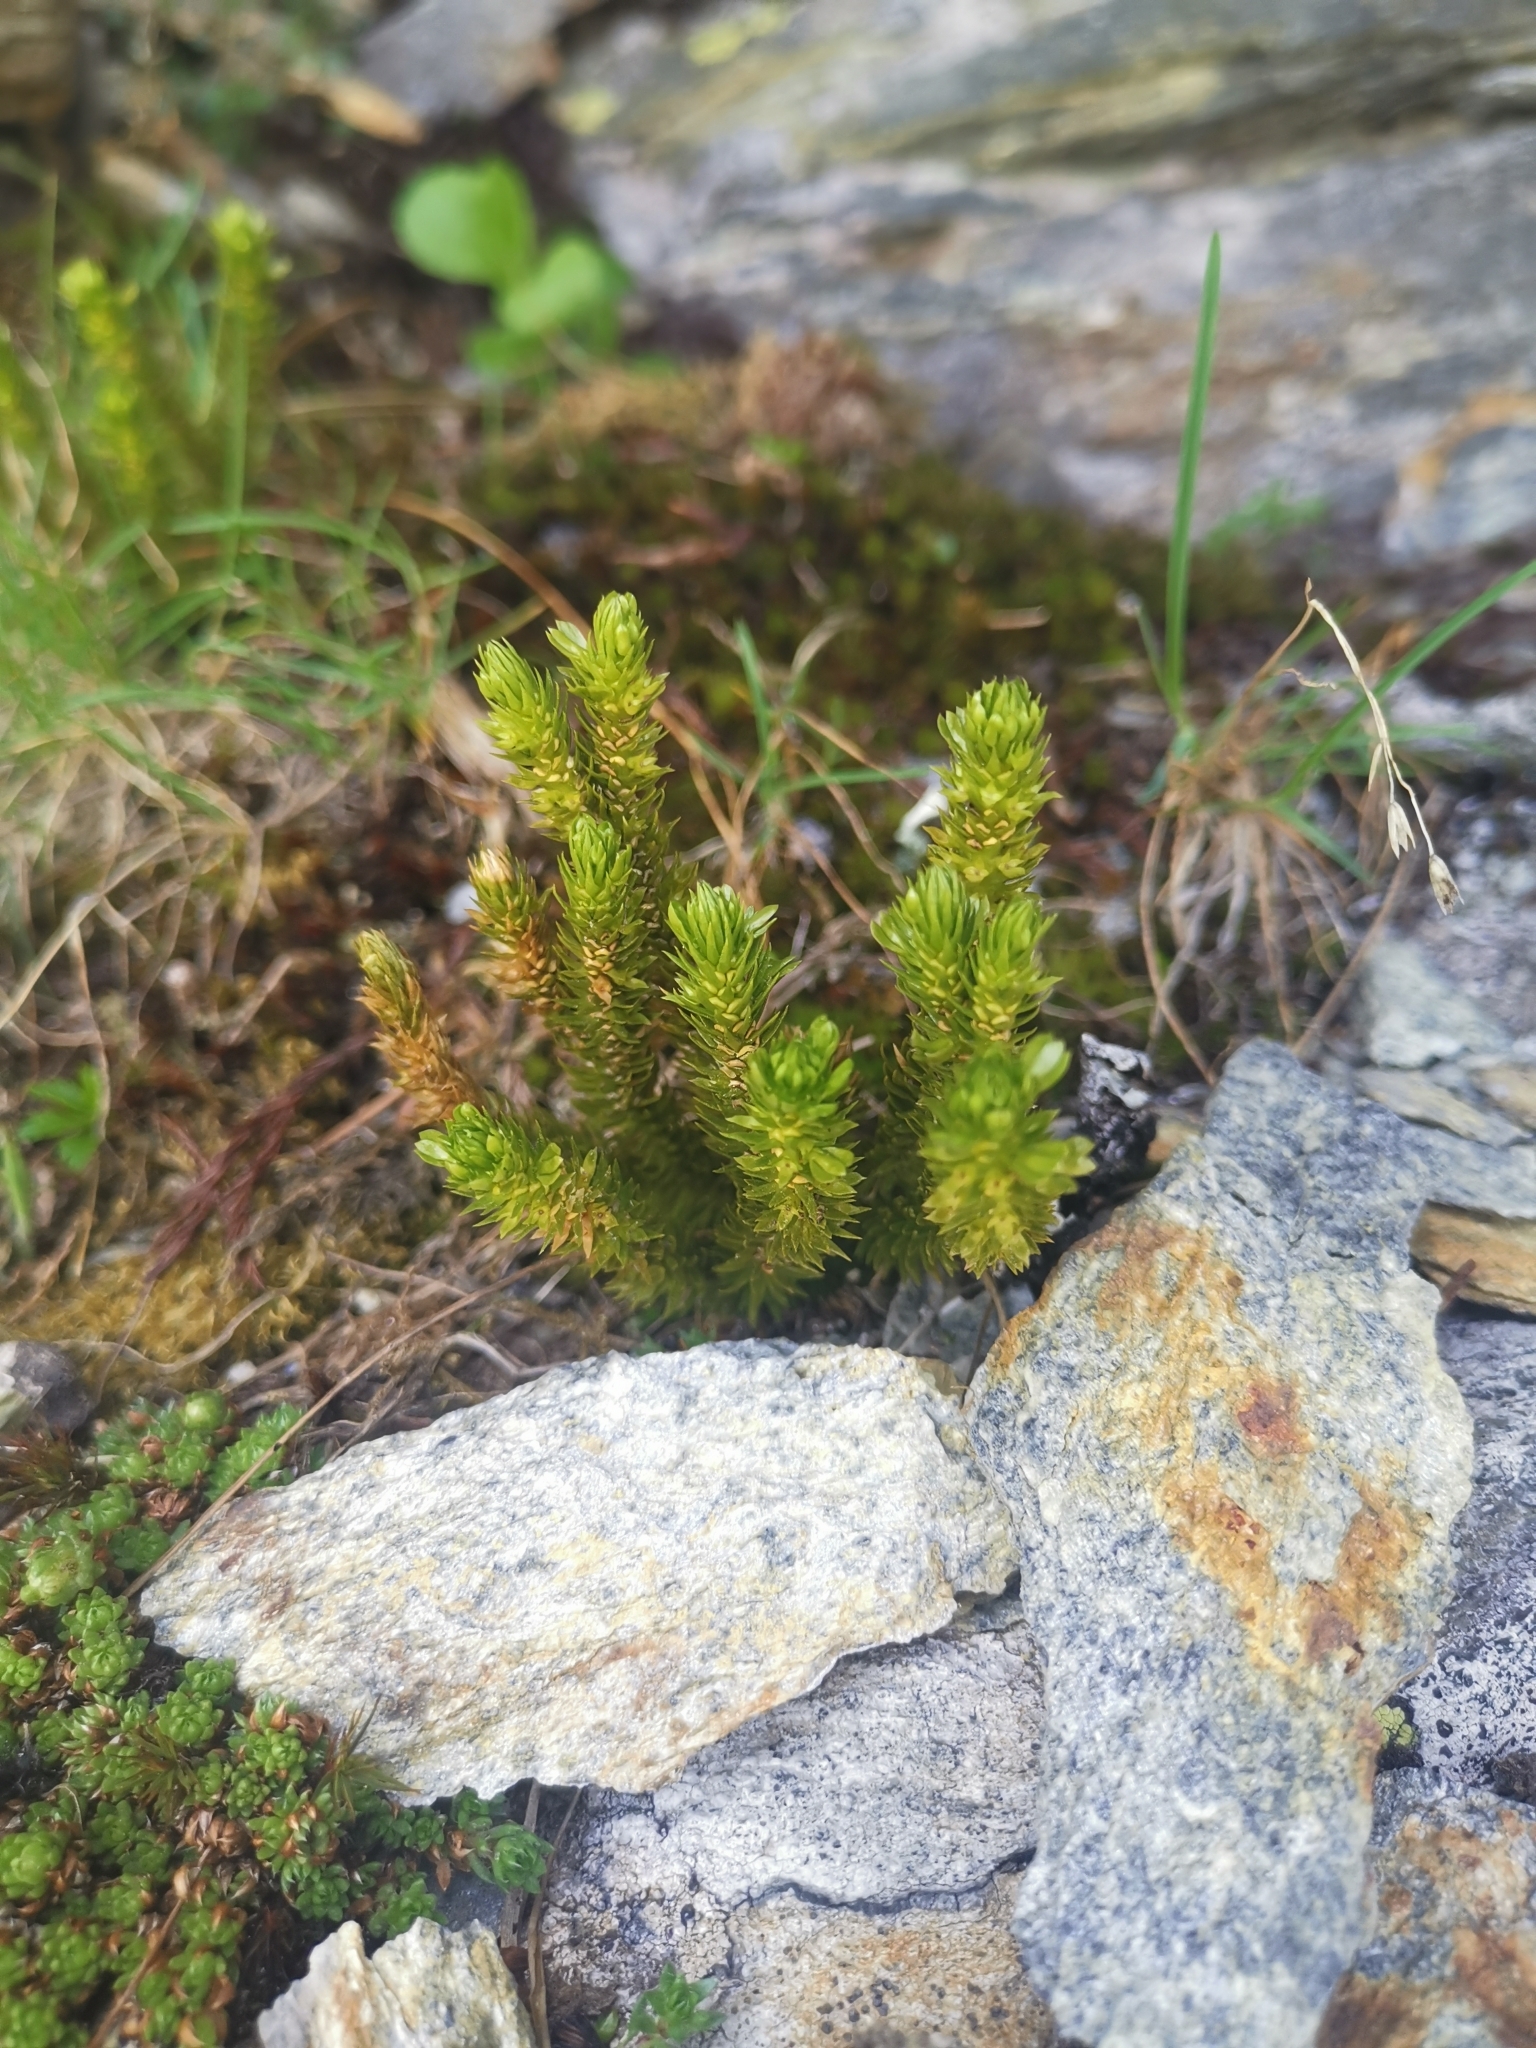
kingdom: Plantae
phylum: Tracheophyta
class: Lycopodiopsida
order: Lycopodiales
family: Lycopodiaceae
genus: Huperzia
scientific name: Huperzia selago
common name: Northern firmoss
